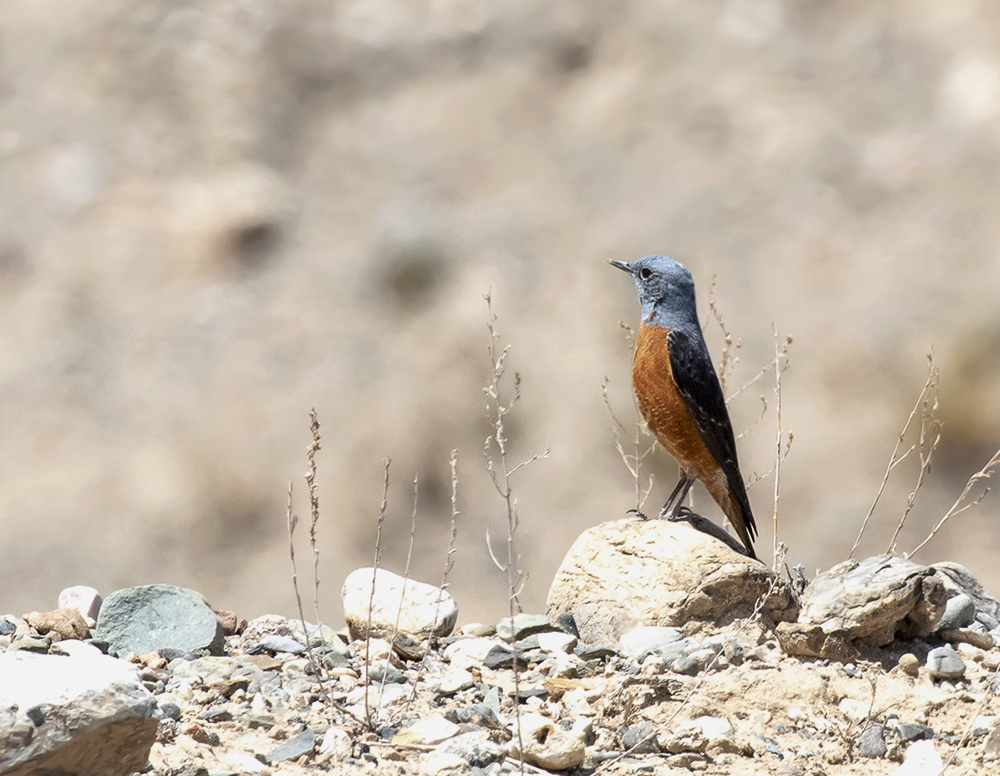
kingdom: Animalia
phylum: Chordata
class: Aves
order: Passeriformes
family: Muscicapidae
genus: Monticola
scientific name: Monticola saxatilis
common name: Rufous-tailed rock thrush
